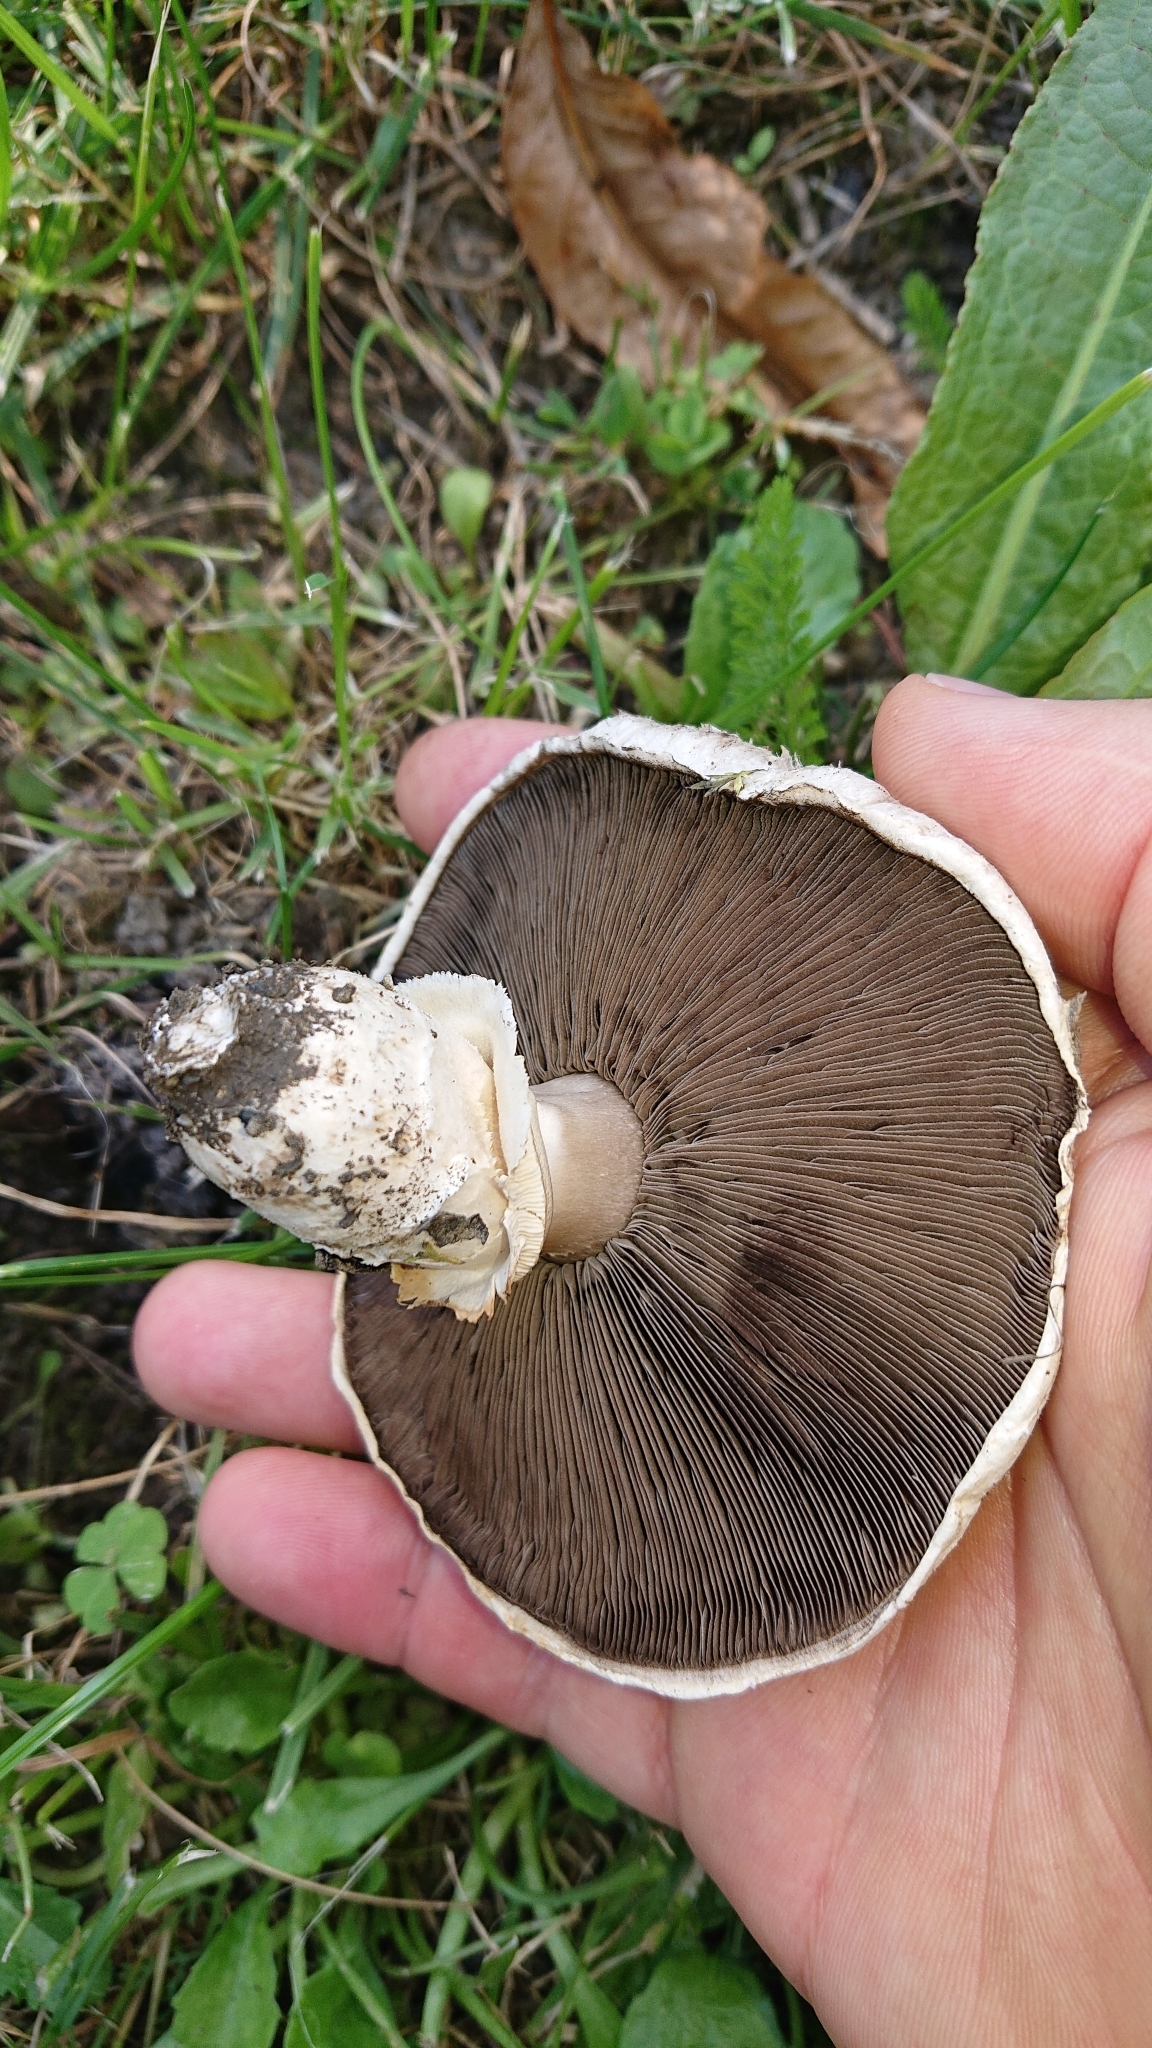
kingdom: Fungi
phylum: Basidiomycota
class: Agaricomycetes
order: Agaricales
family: Agaricaceae
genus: Agaricus
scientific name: Agaricus bitorquis
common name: Pavement mushroom
